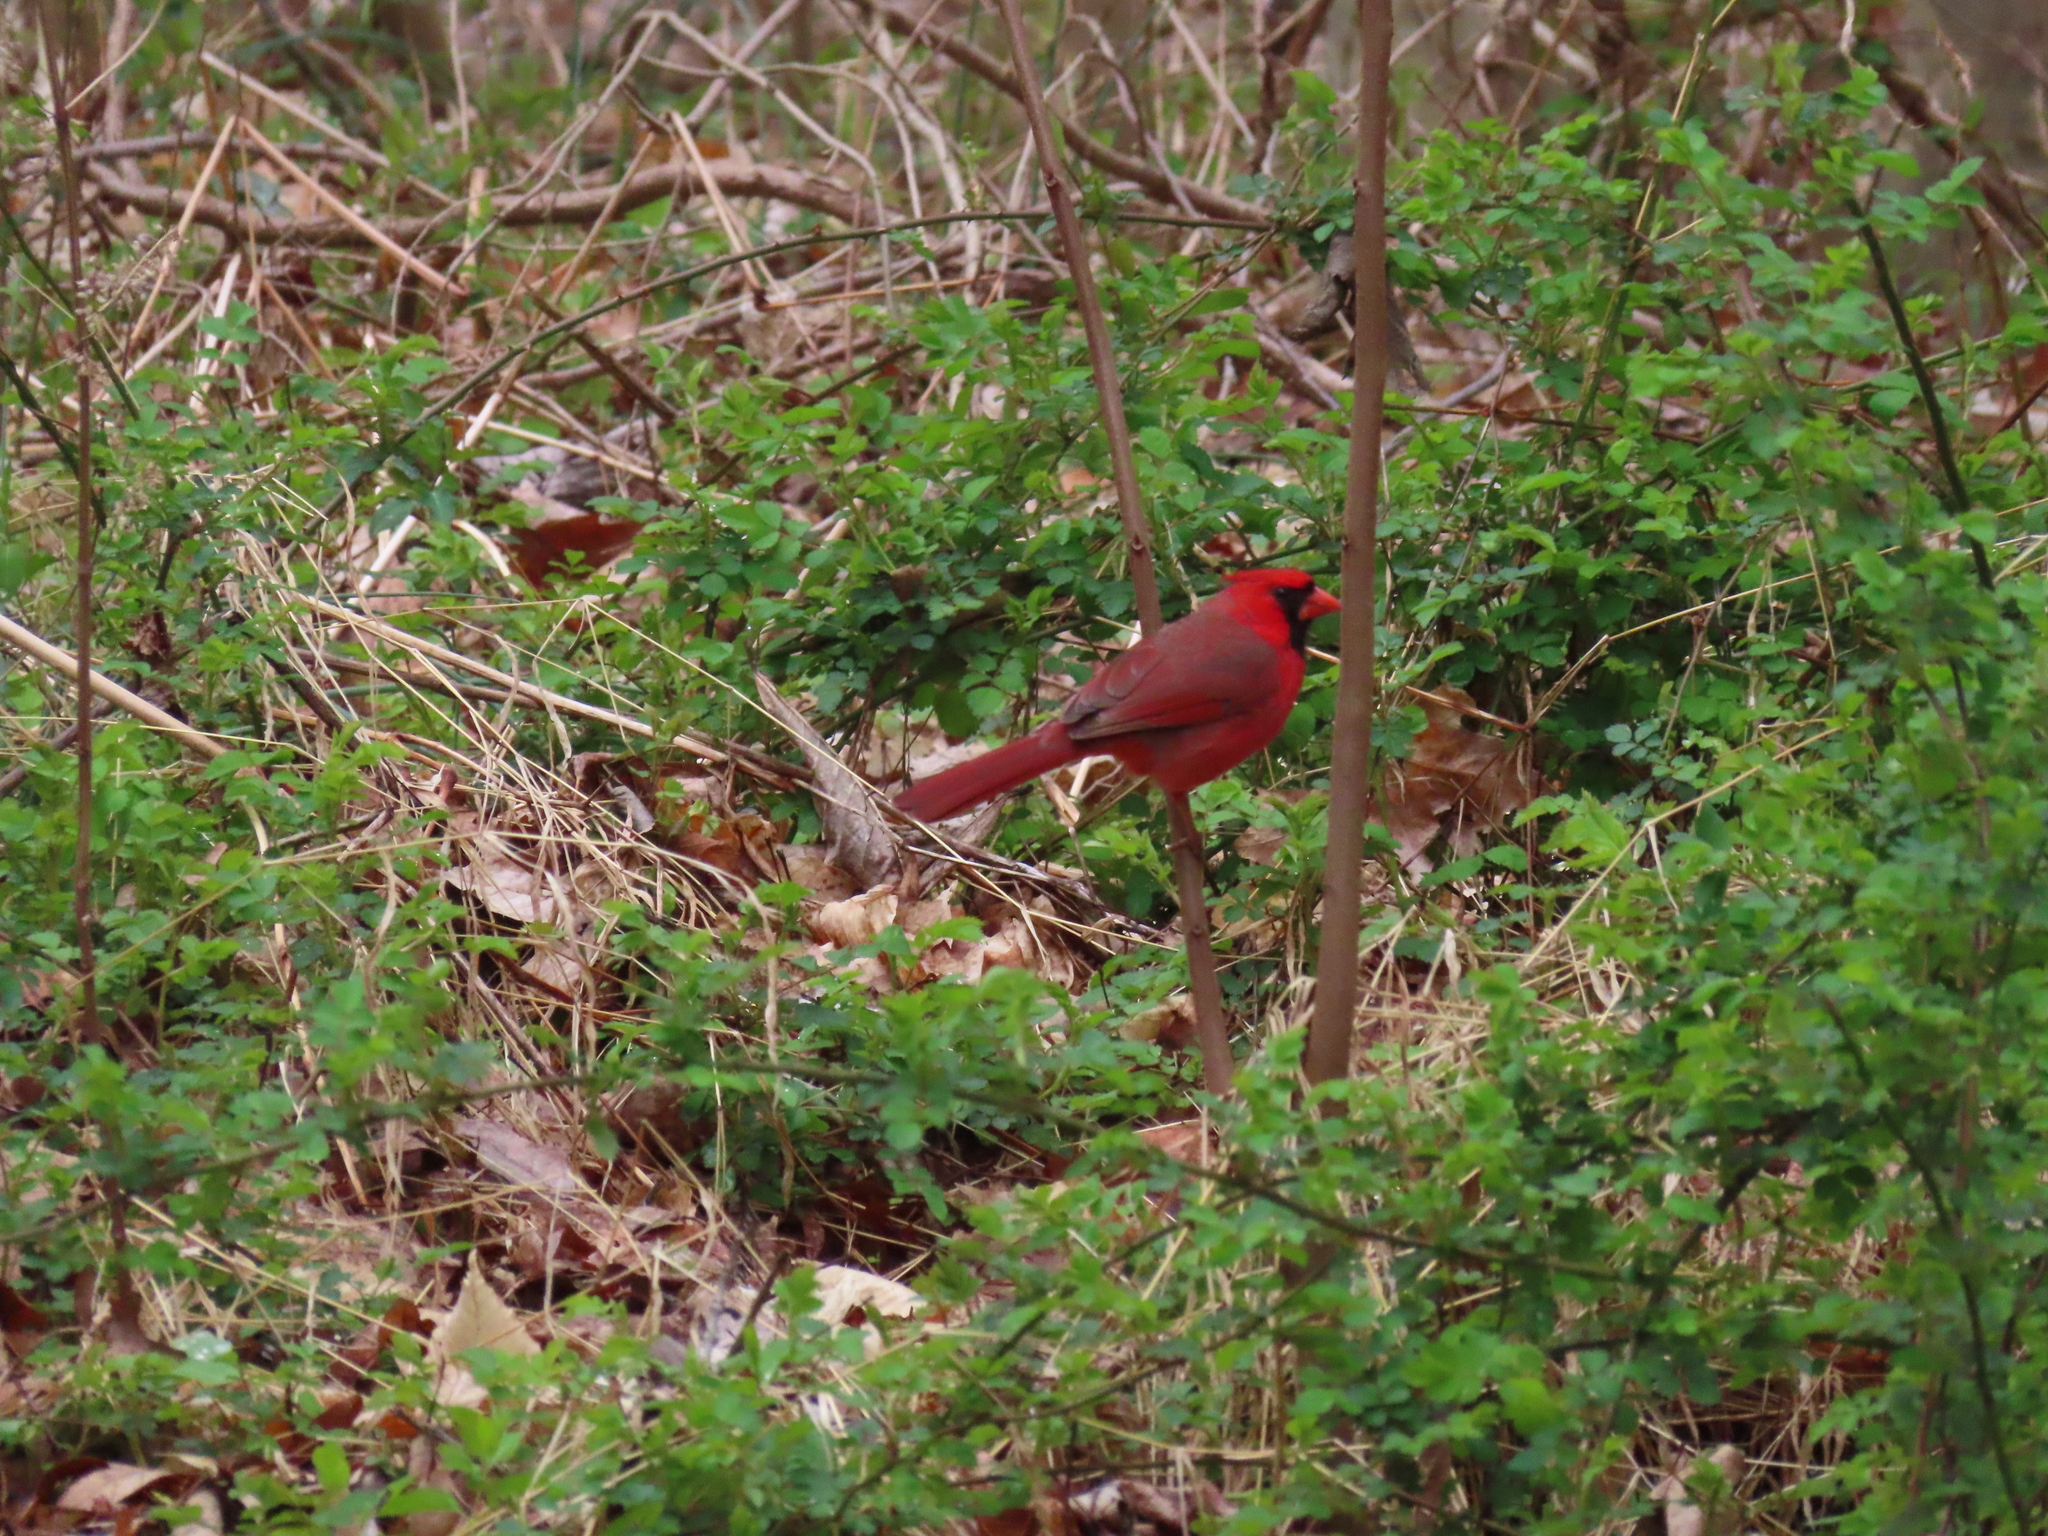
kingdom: Animalia
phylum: Chordata
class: Aves
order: Passeriformes
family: Cardinalidae
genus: Cardinalis
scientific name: Cardinalis cardinalis
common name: Northern cardinal
